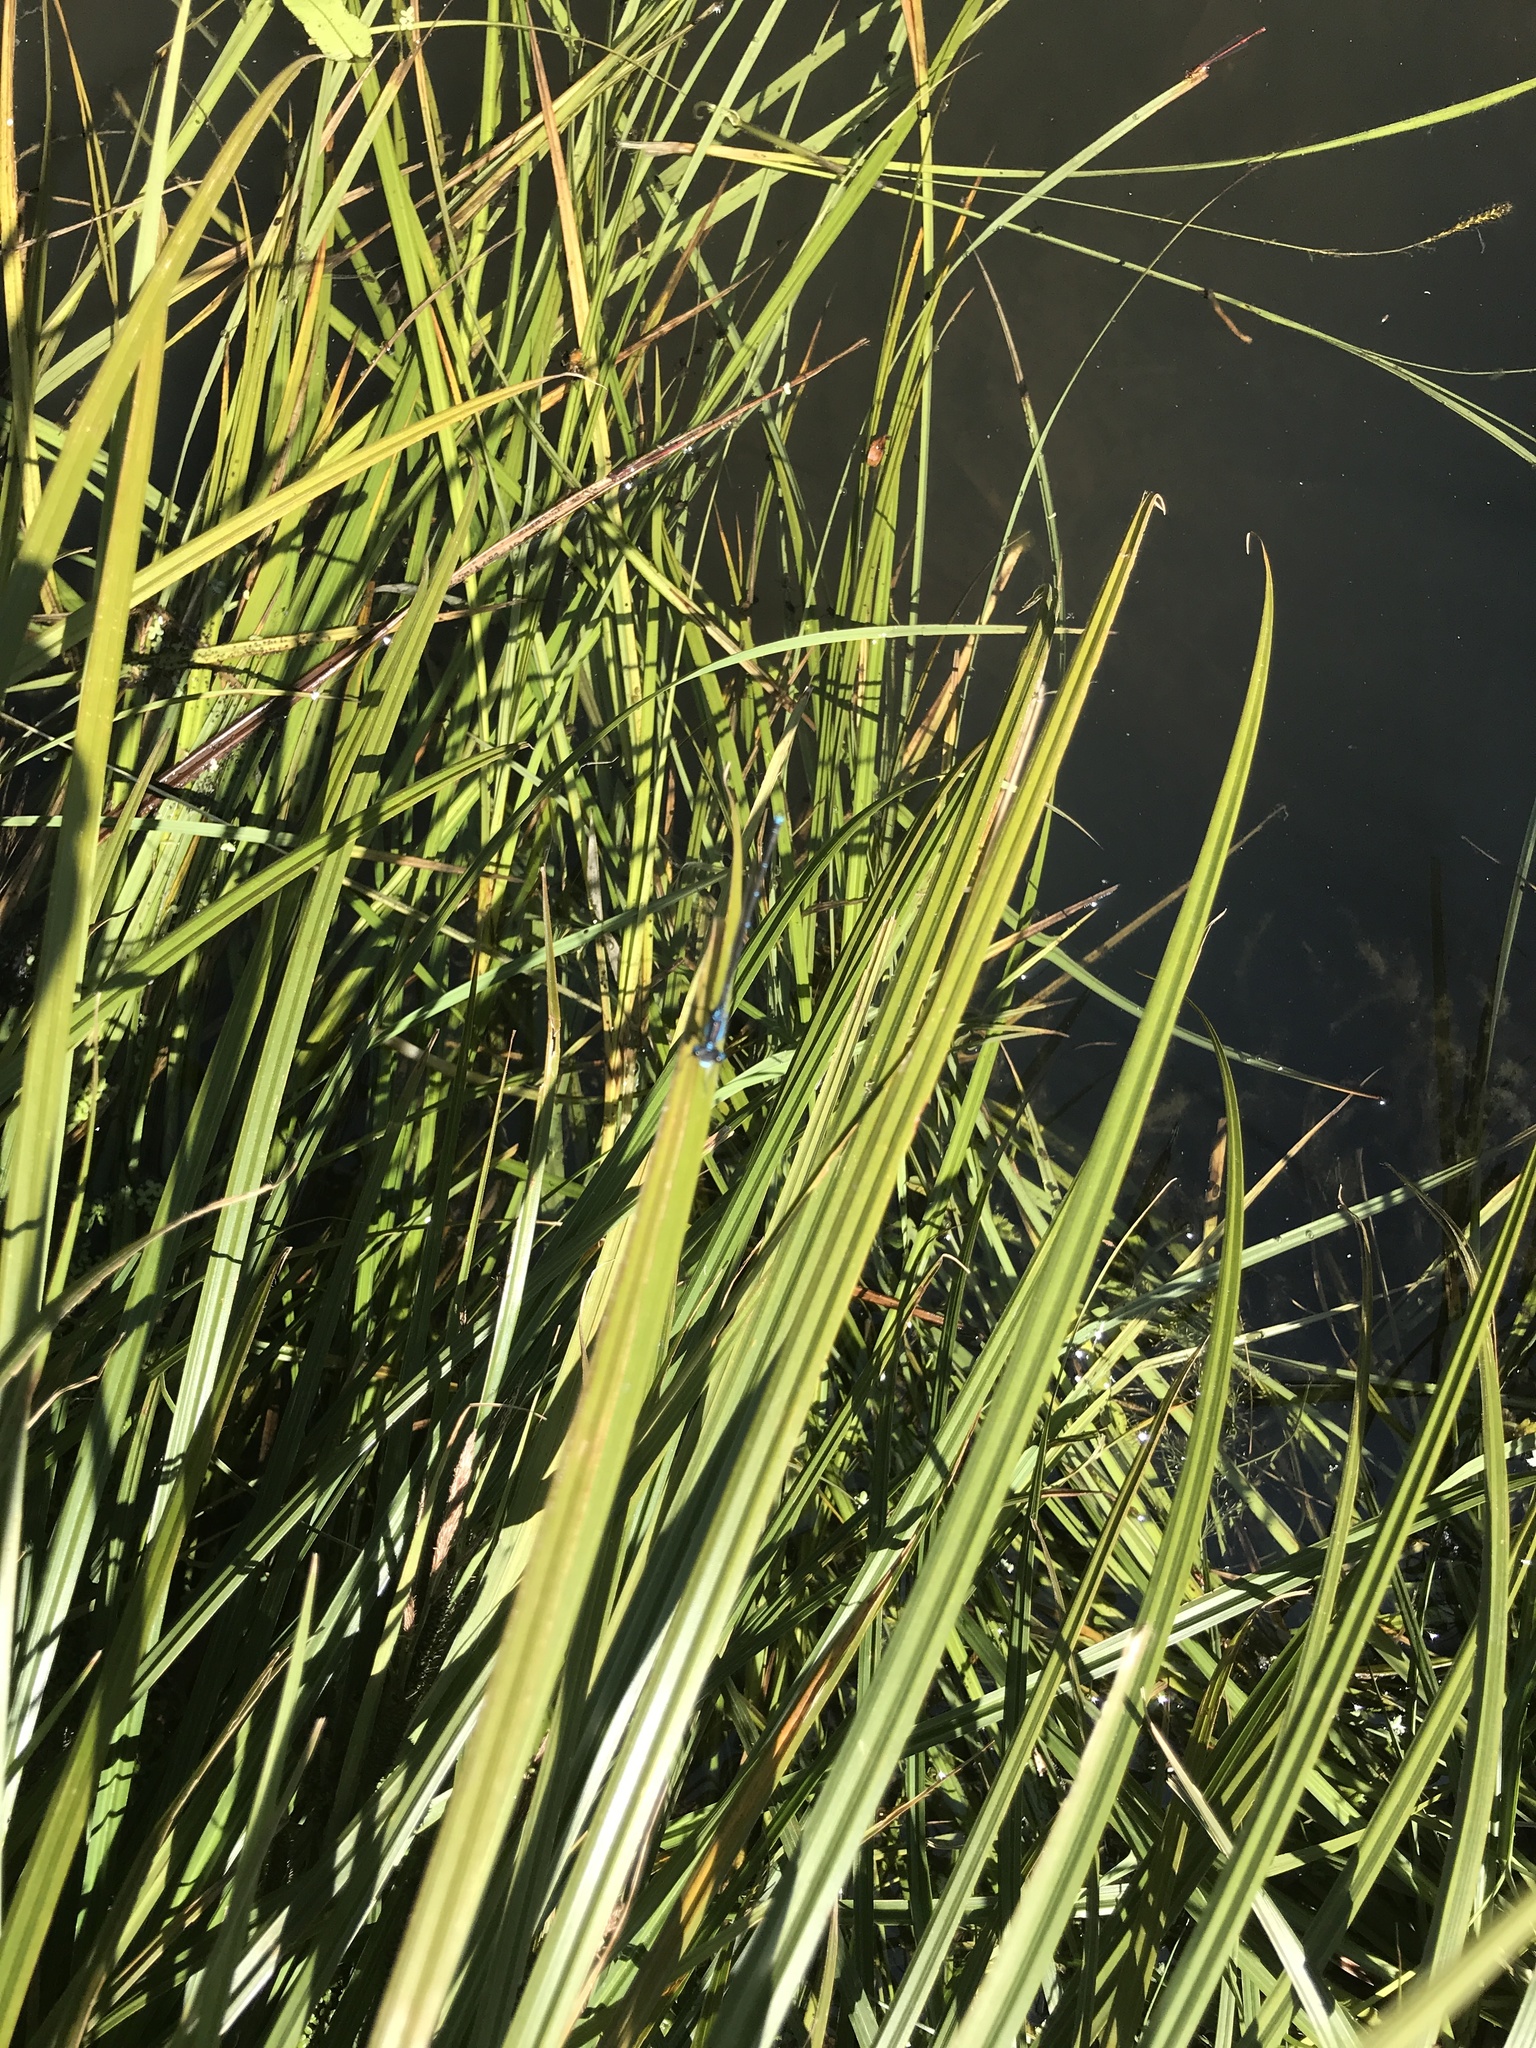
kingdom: Animalia
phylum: Arthropoda
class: Insecta
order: Odonata
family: Lestidae
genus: Austrolestes
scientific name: Austrolestes colensonis
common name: Blue damselfly
